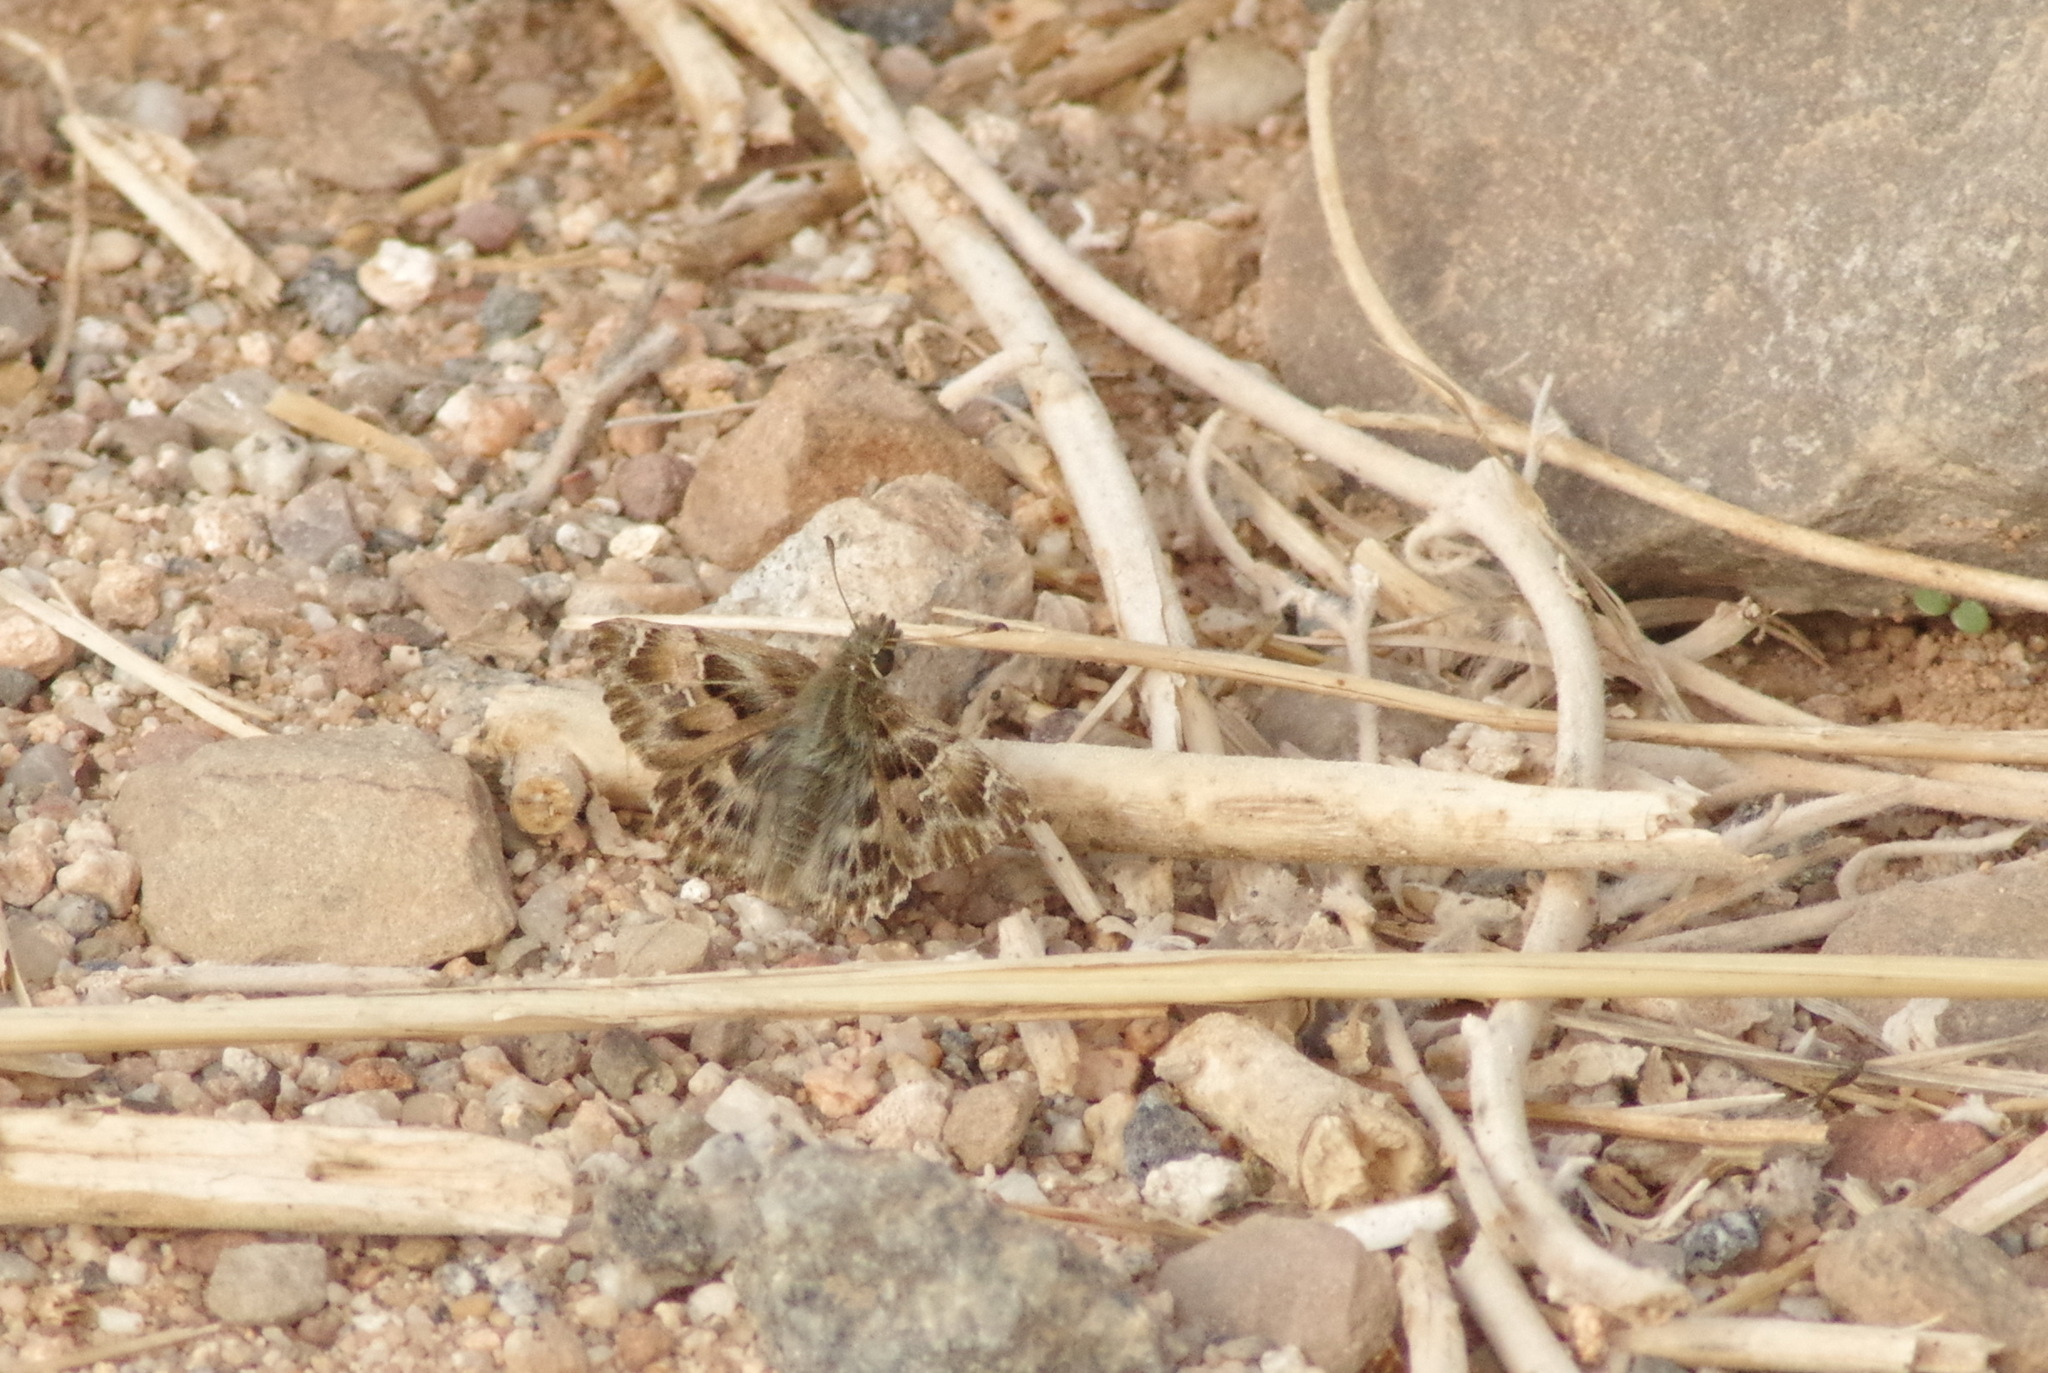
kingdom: Animalia
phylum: Arthropoda
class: Insecta
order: Lepidoptera
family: Hesperiidae
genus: Carcharodus
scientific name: Carcharodus alceae
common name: Mallow skipper
